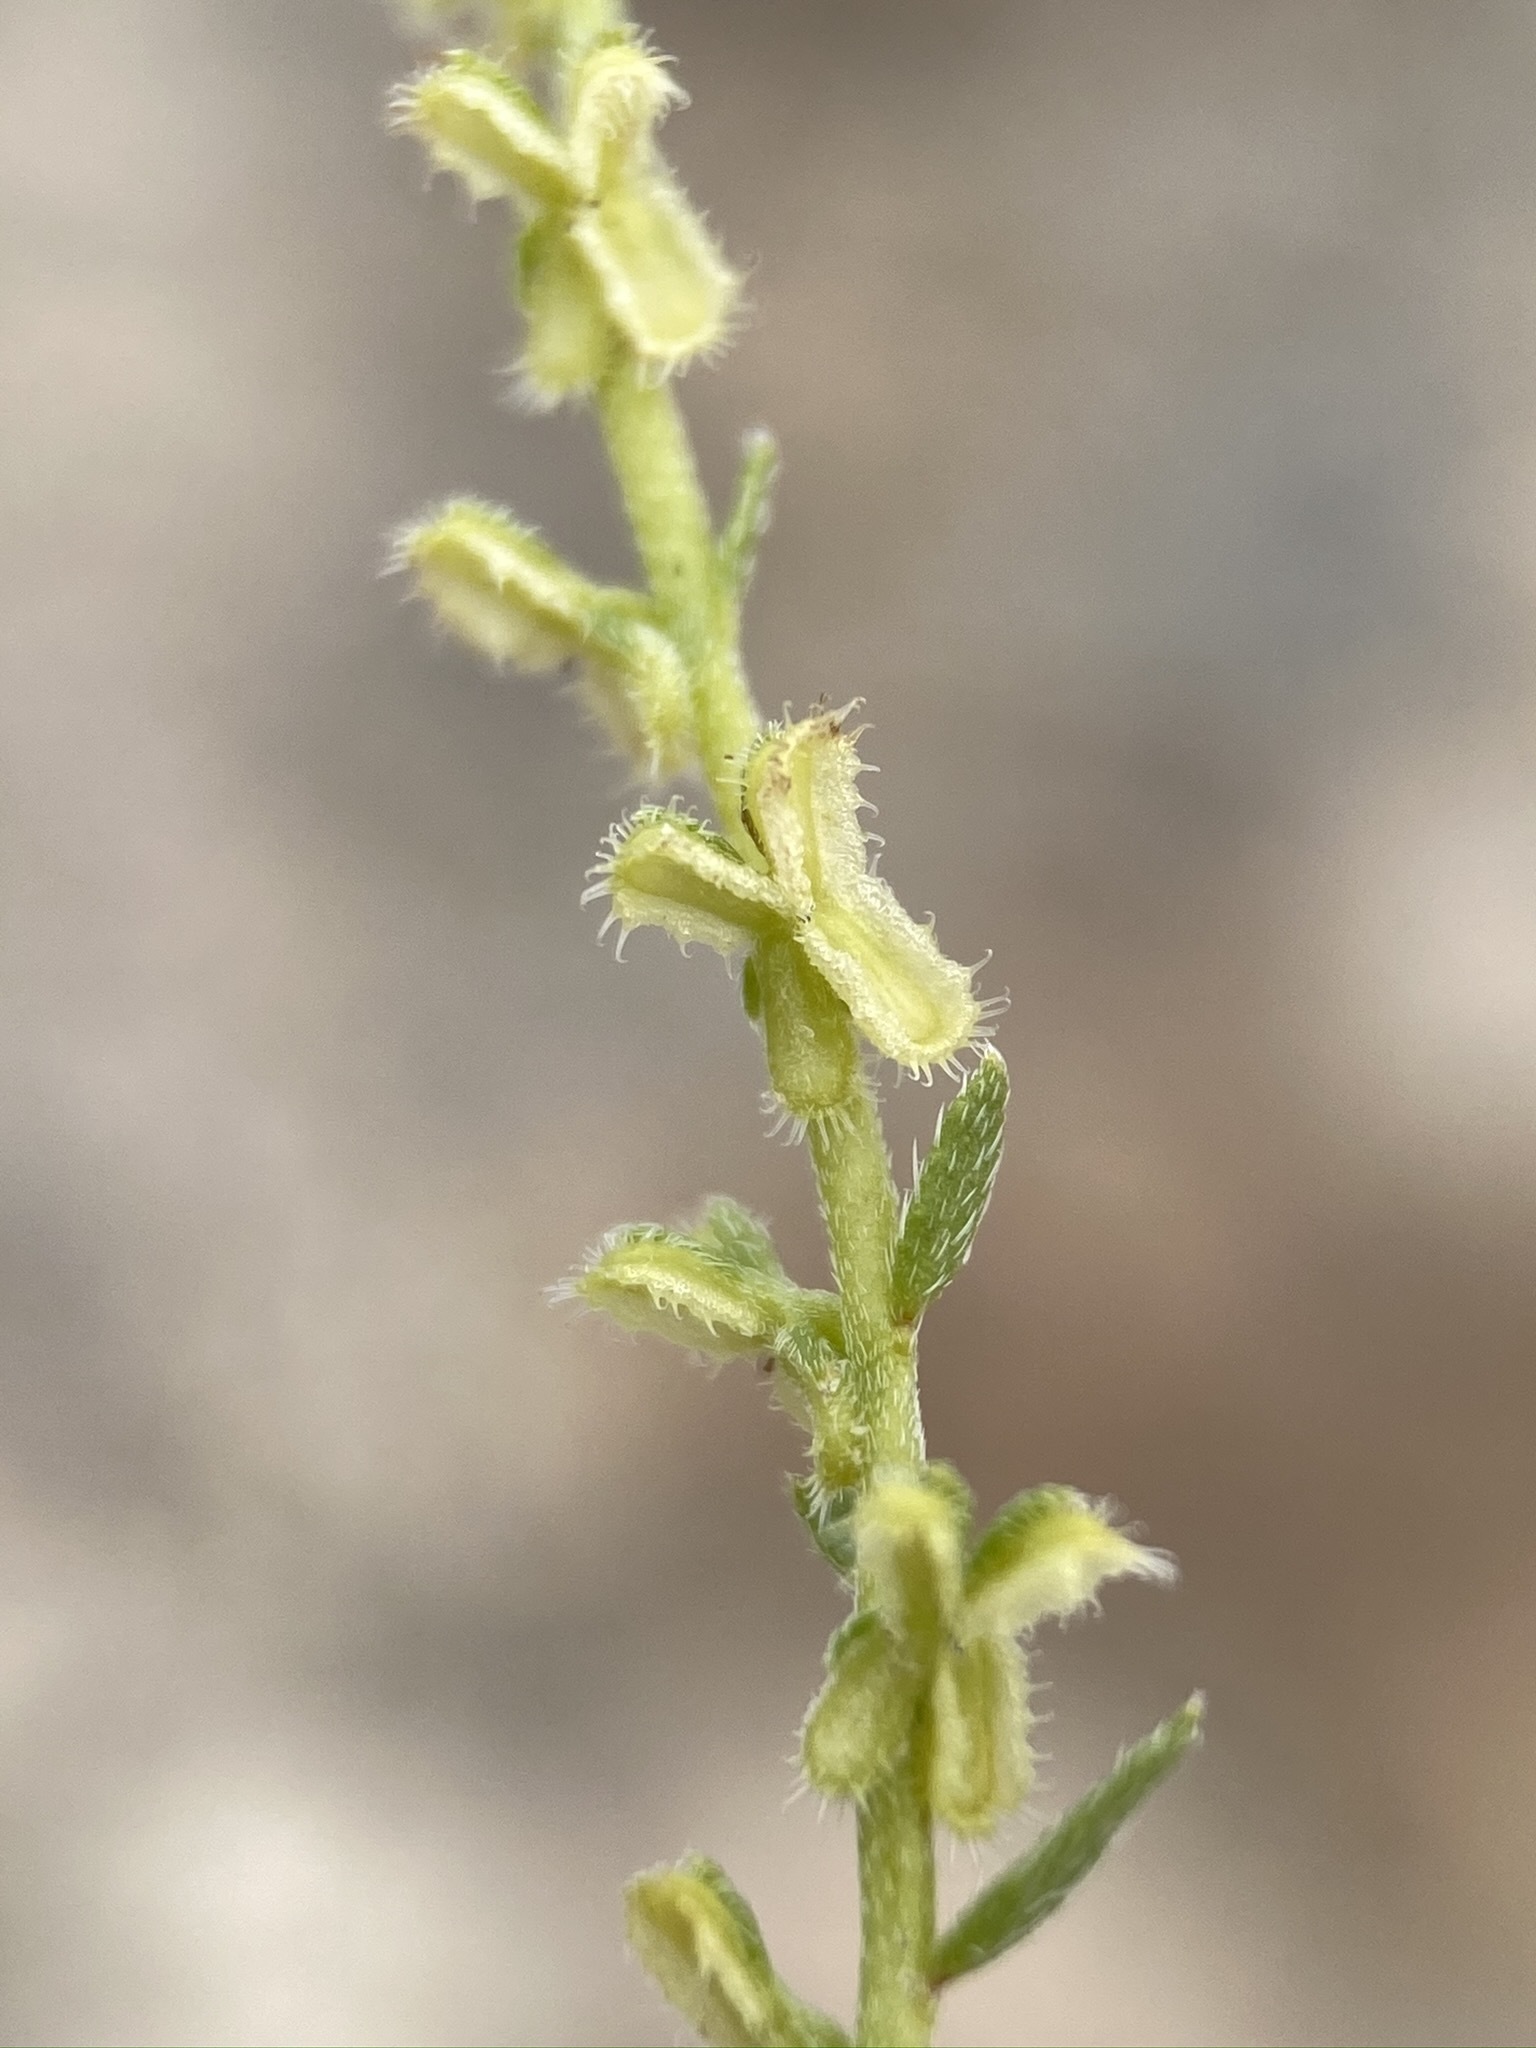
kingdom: Plantae
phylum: Tracheophyta
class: Magnoliopsida
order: Boraginales
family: Boraginaceae
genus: Pectocarya
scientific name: Pectocarya anisocarpa
